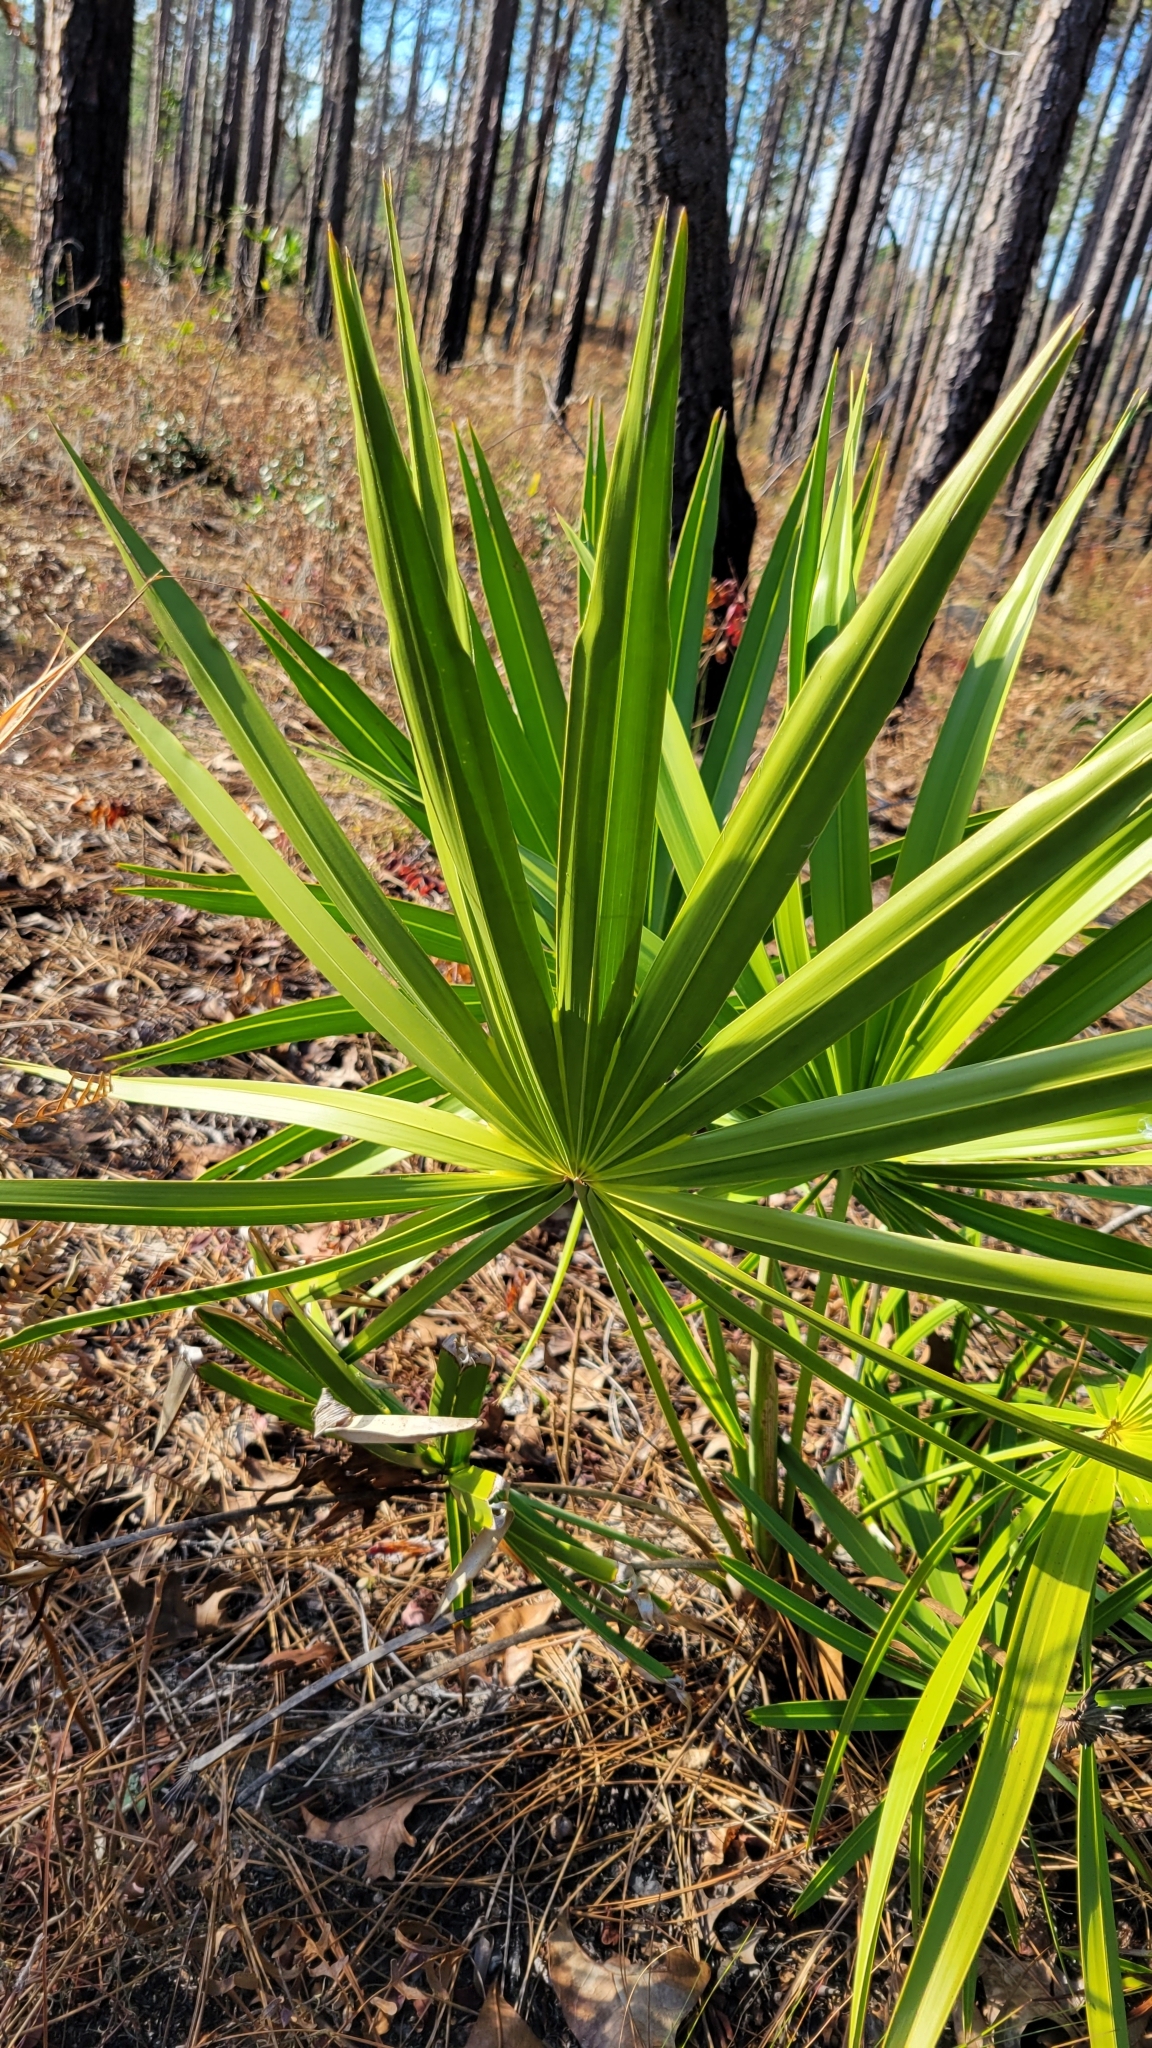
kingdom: Plantae
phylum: Tracheophyta
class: Liliopsida
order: Arecales
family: Arecaceae
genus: Serenoa
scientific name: Serenoa repens
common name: Saw-palmetto
